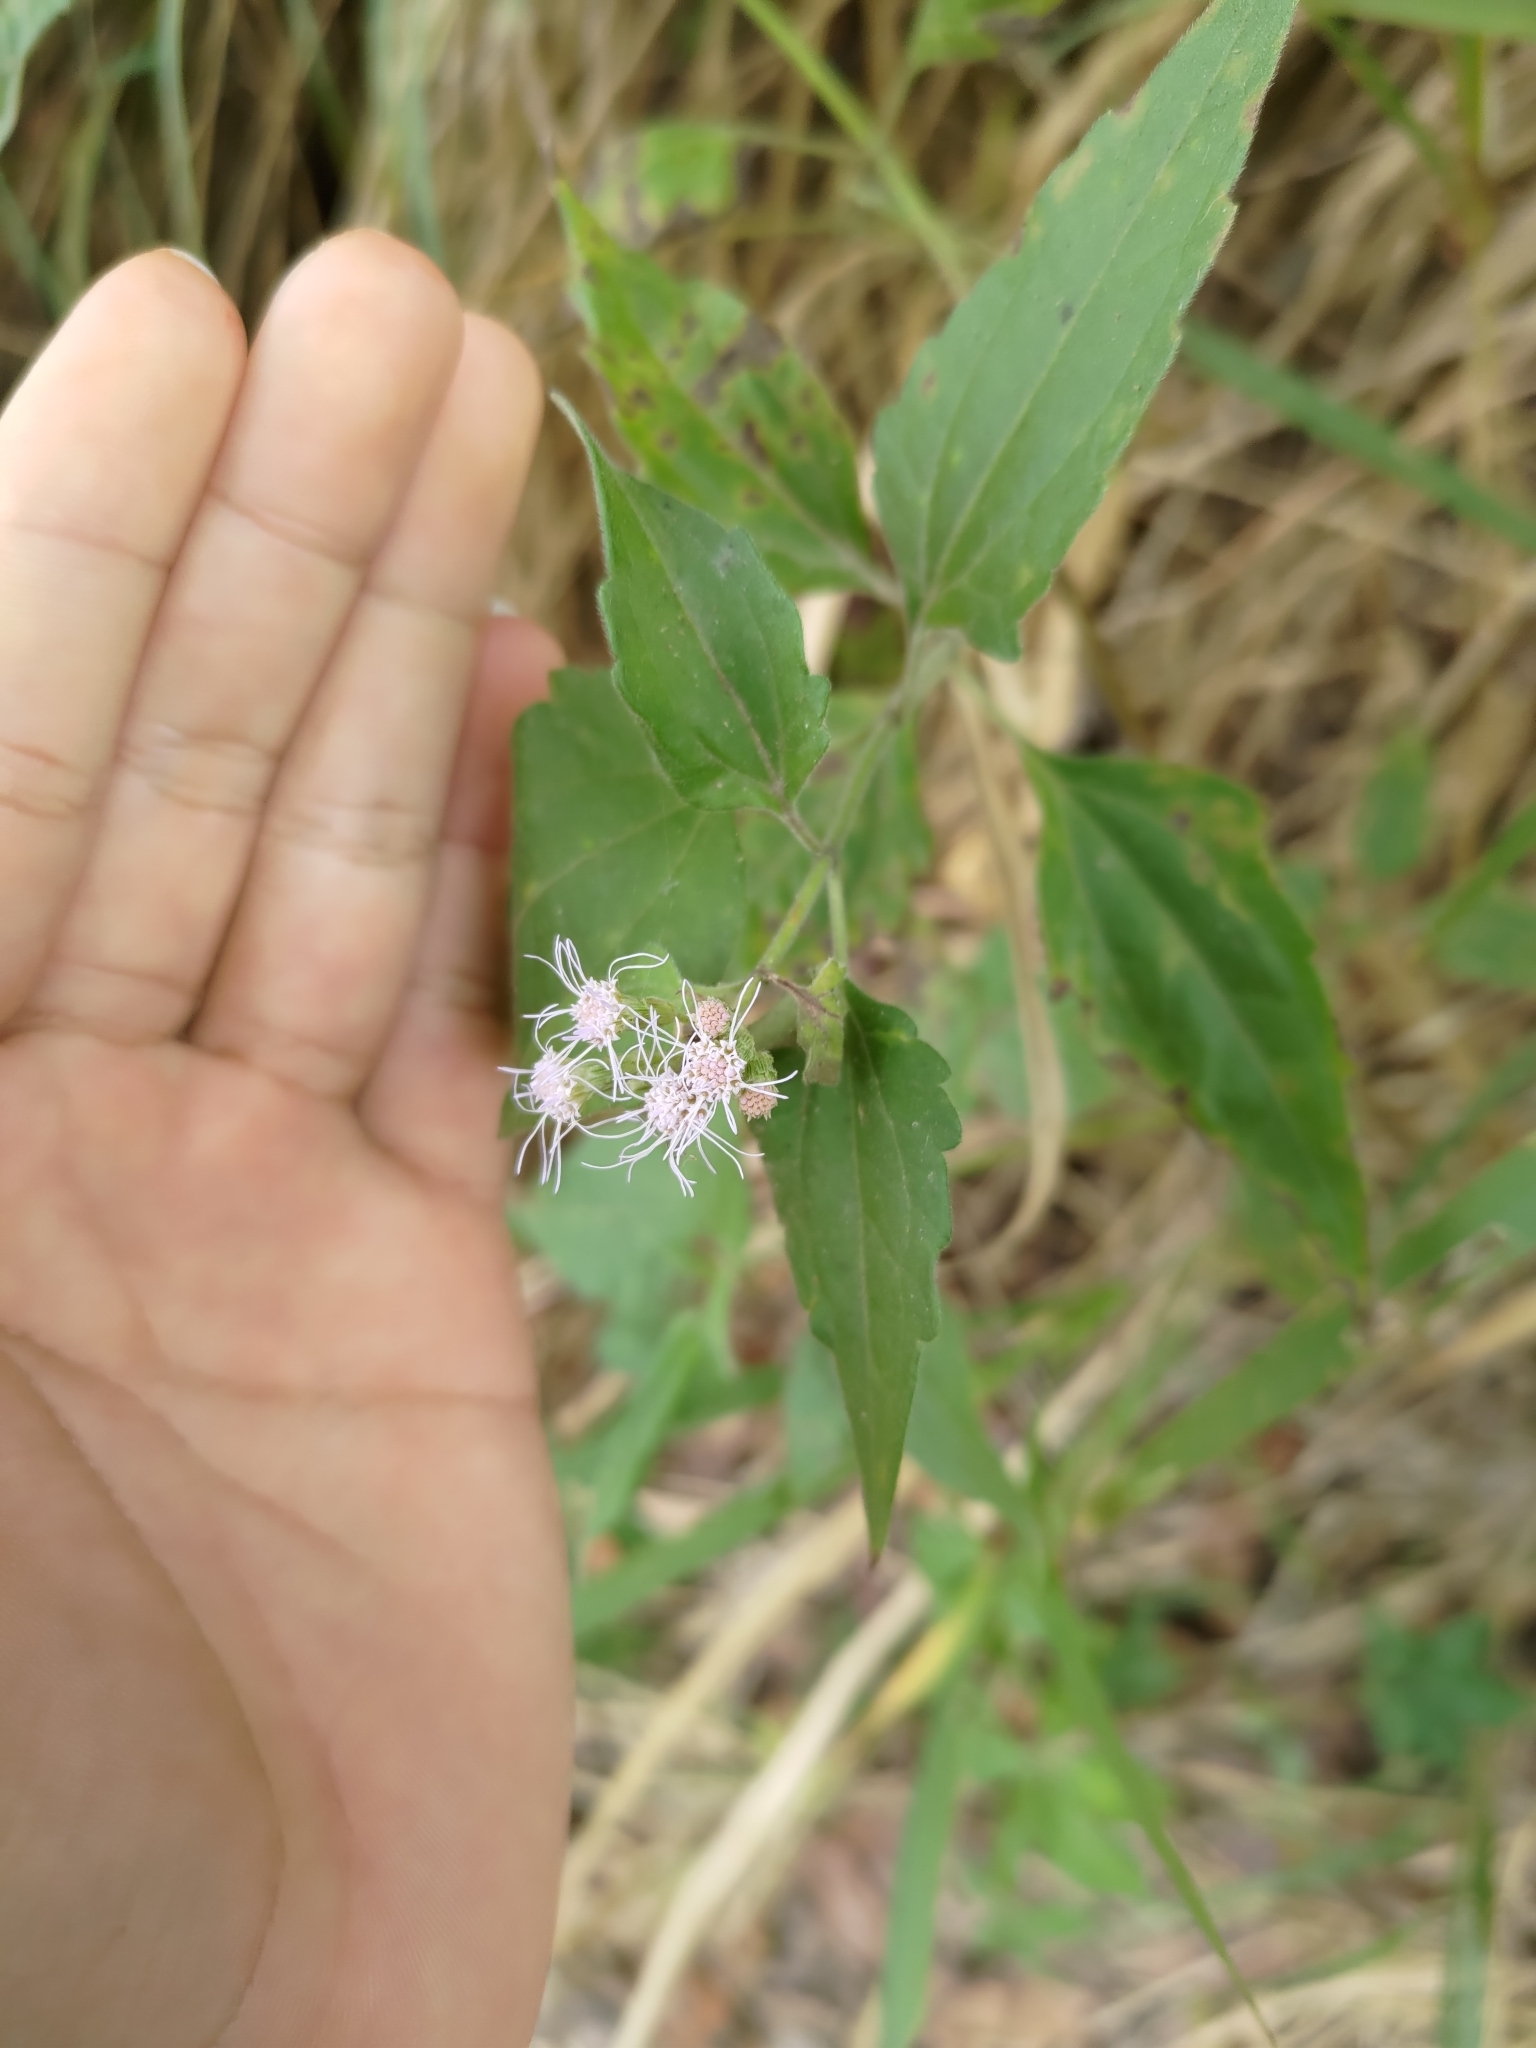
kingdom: Plantae
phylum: Tracheophyta
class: Magnoliopsida
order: Asterales
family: Asteraceae
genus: Chromolaena
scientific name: Chromolaena odorata
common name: Siamweed
